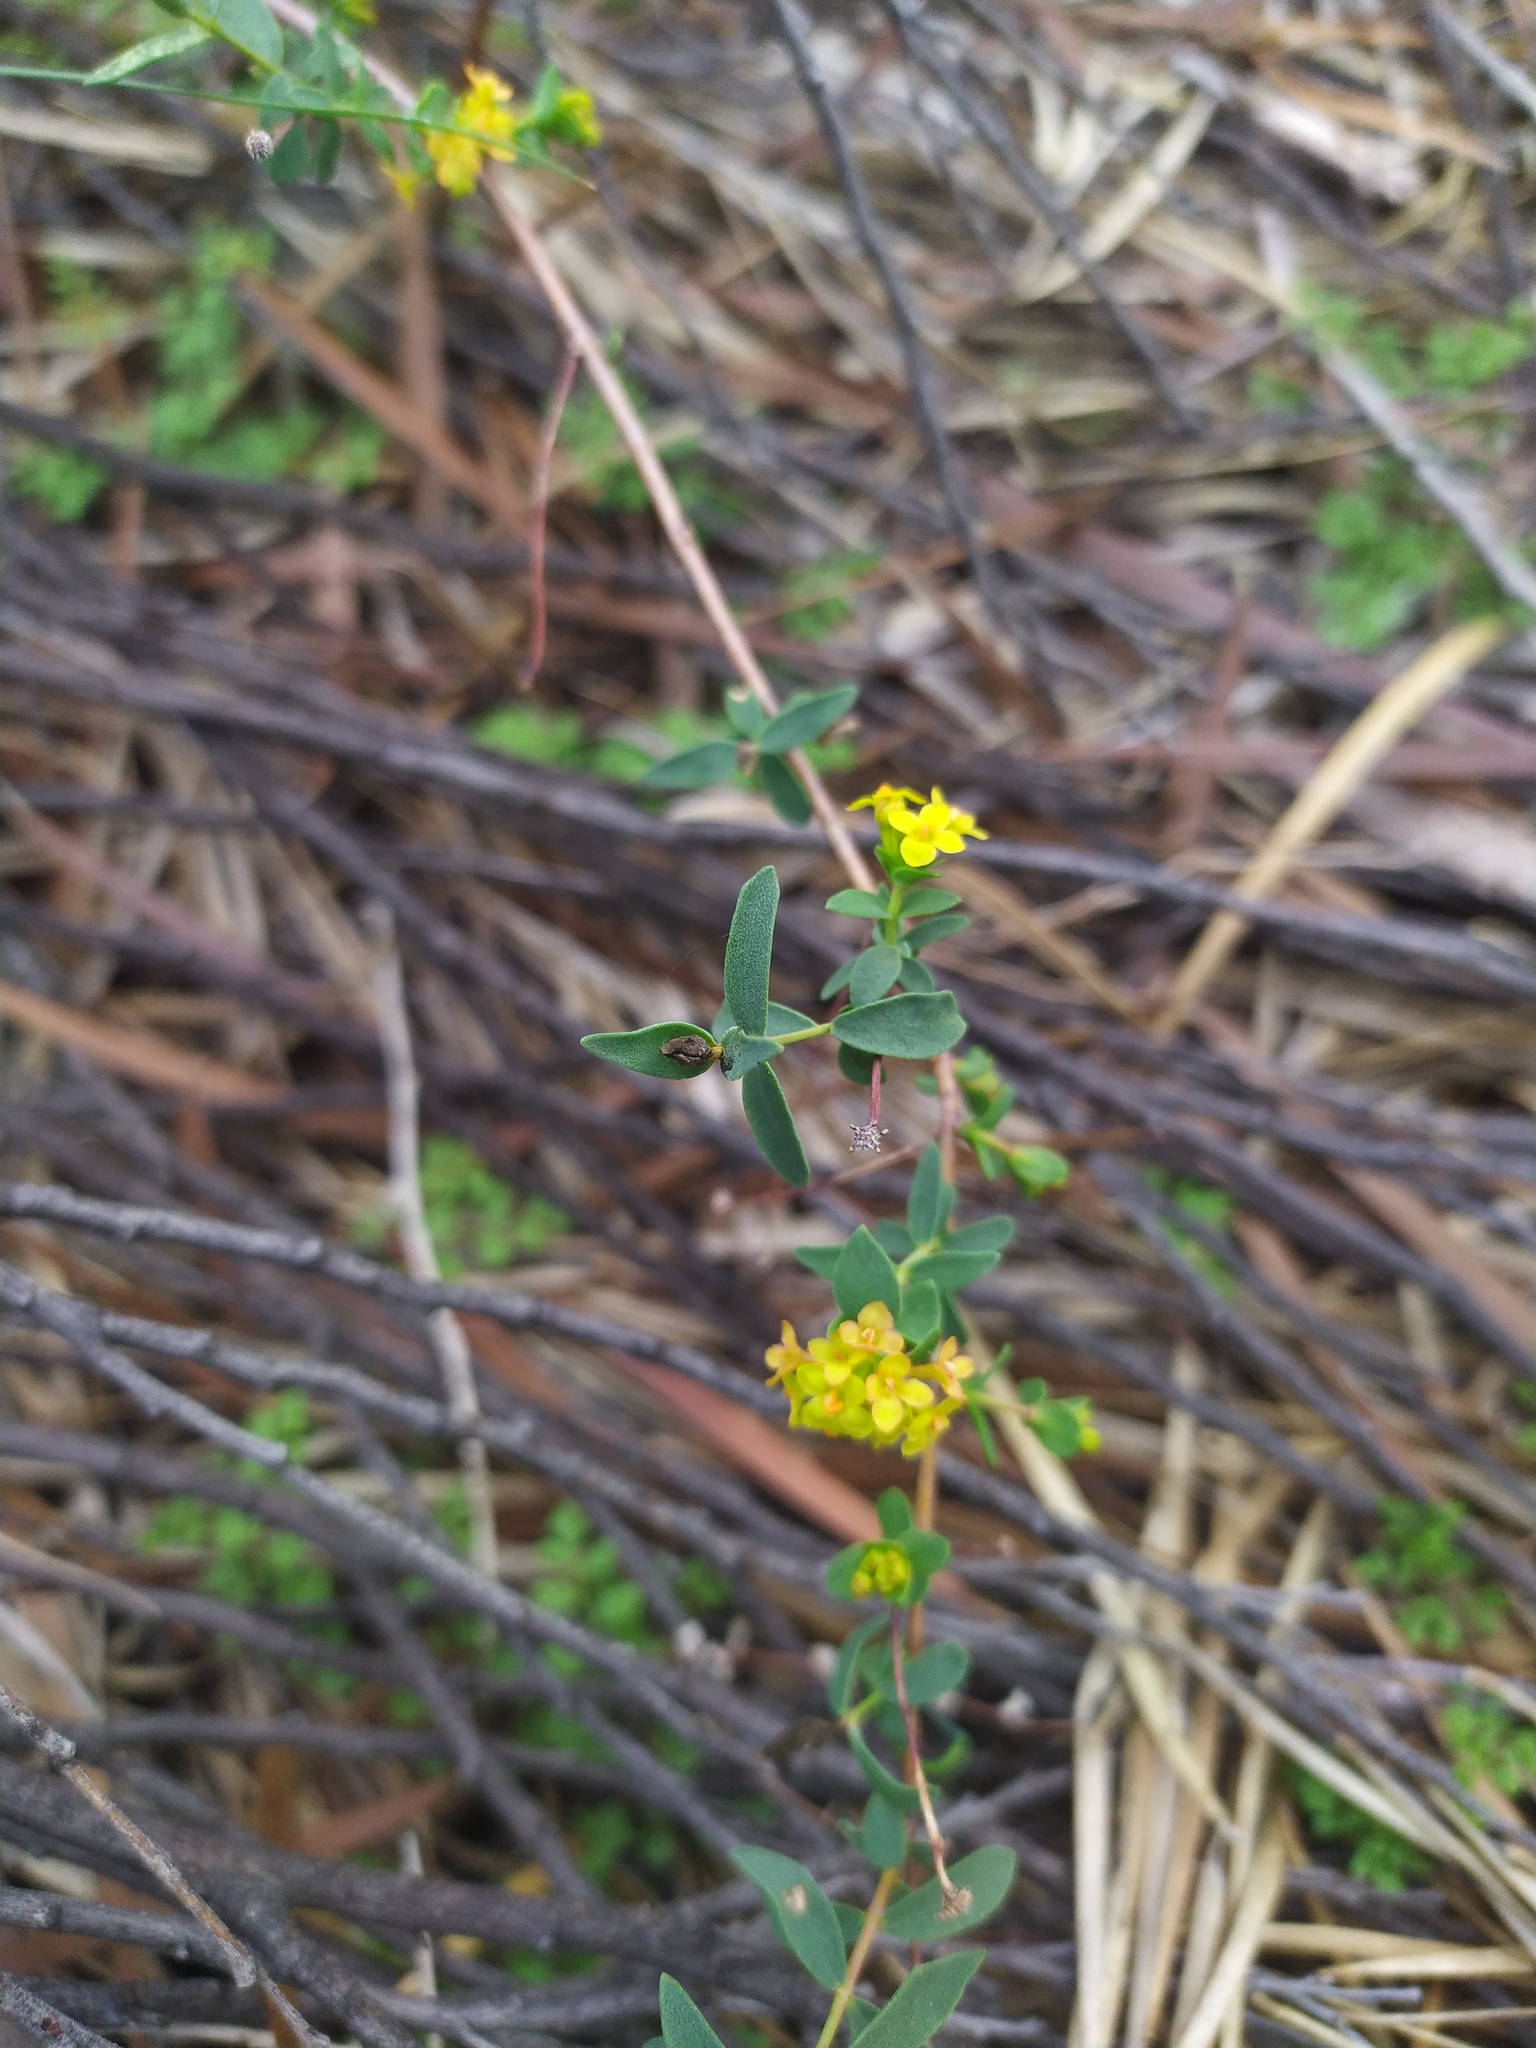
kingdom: Plantae
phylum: Tracheophyta
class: Magnoliopsida
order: Malvales
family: Thymelaeaceae
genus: Pimelea
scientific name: Pimelea spiculigera
